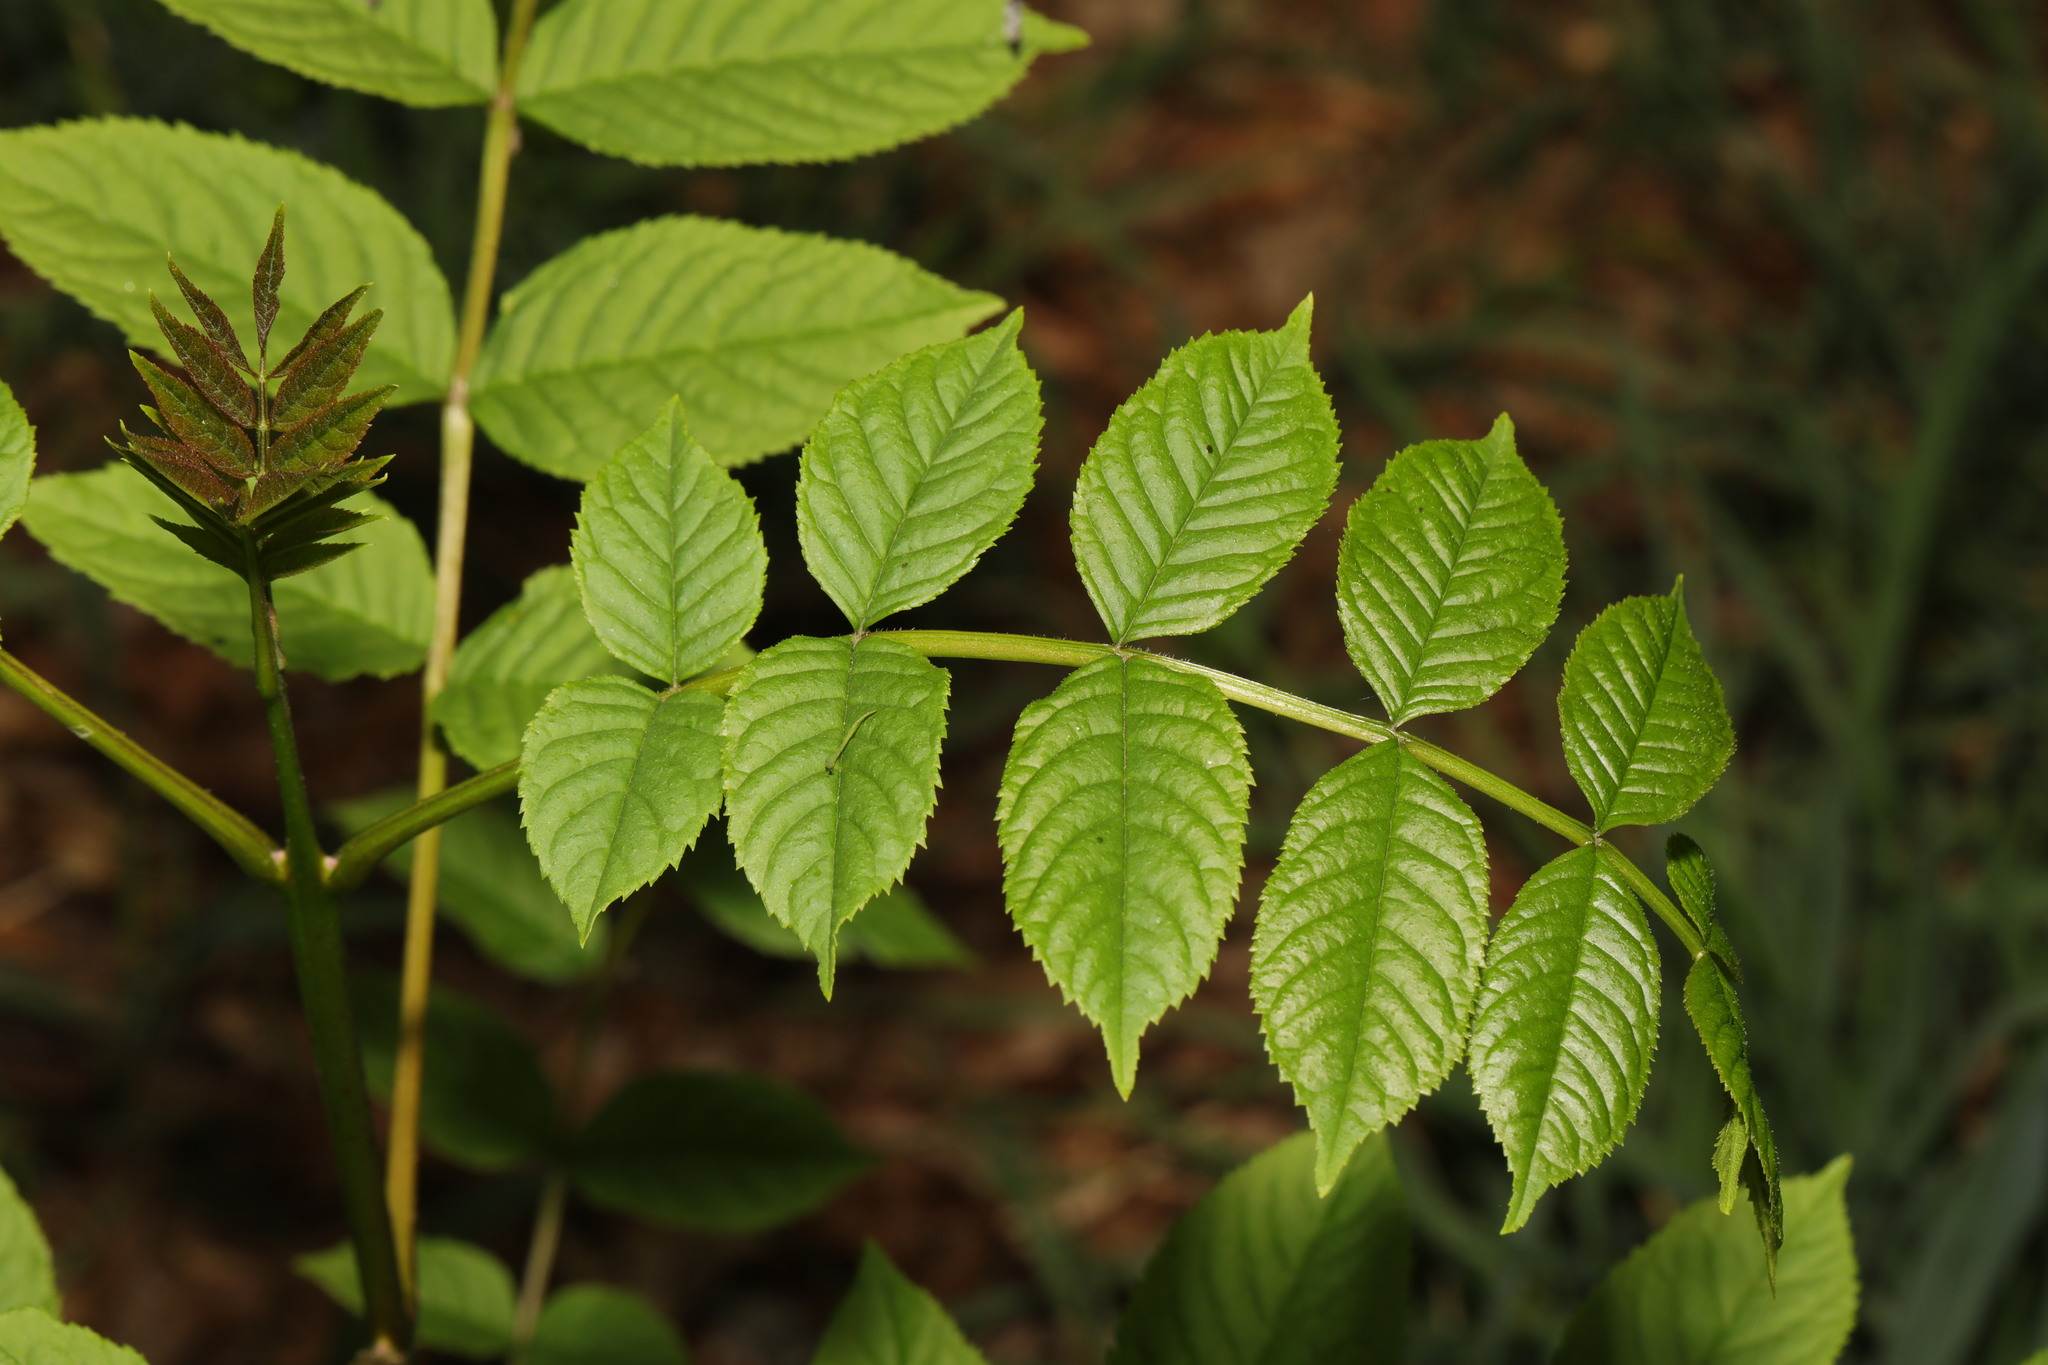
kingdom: Plantae
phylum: Tracheophyta
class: Magnoliopsida
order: Lamiales
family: Oleaceae
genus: Fraxinus
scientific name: Fraxinus excelsior
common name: European ash
